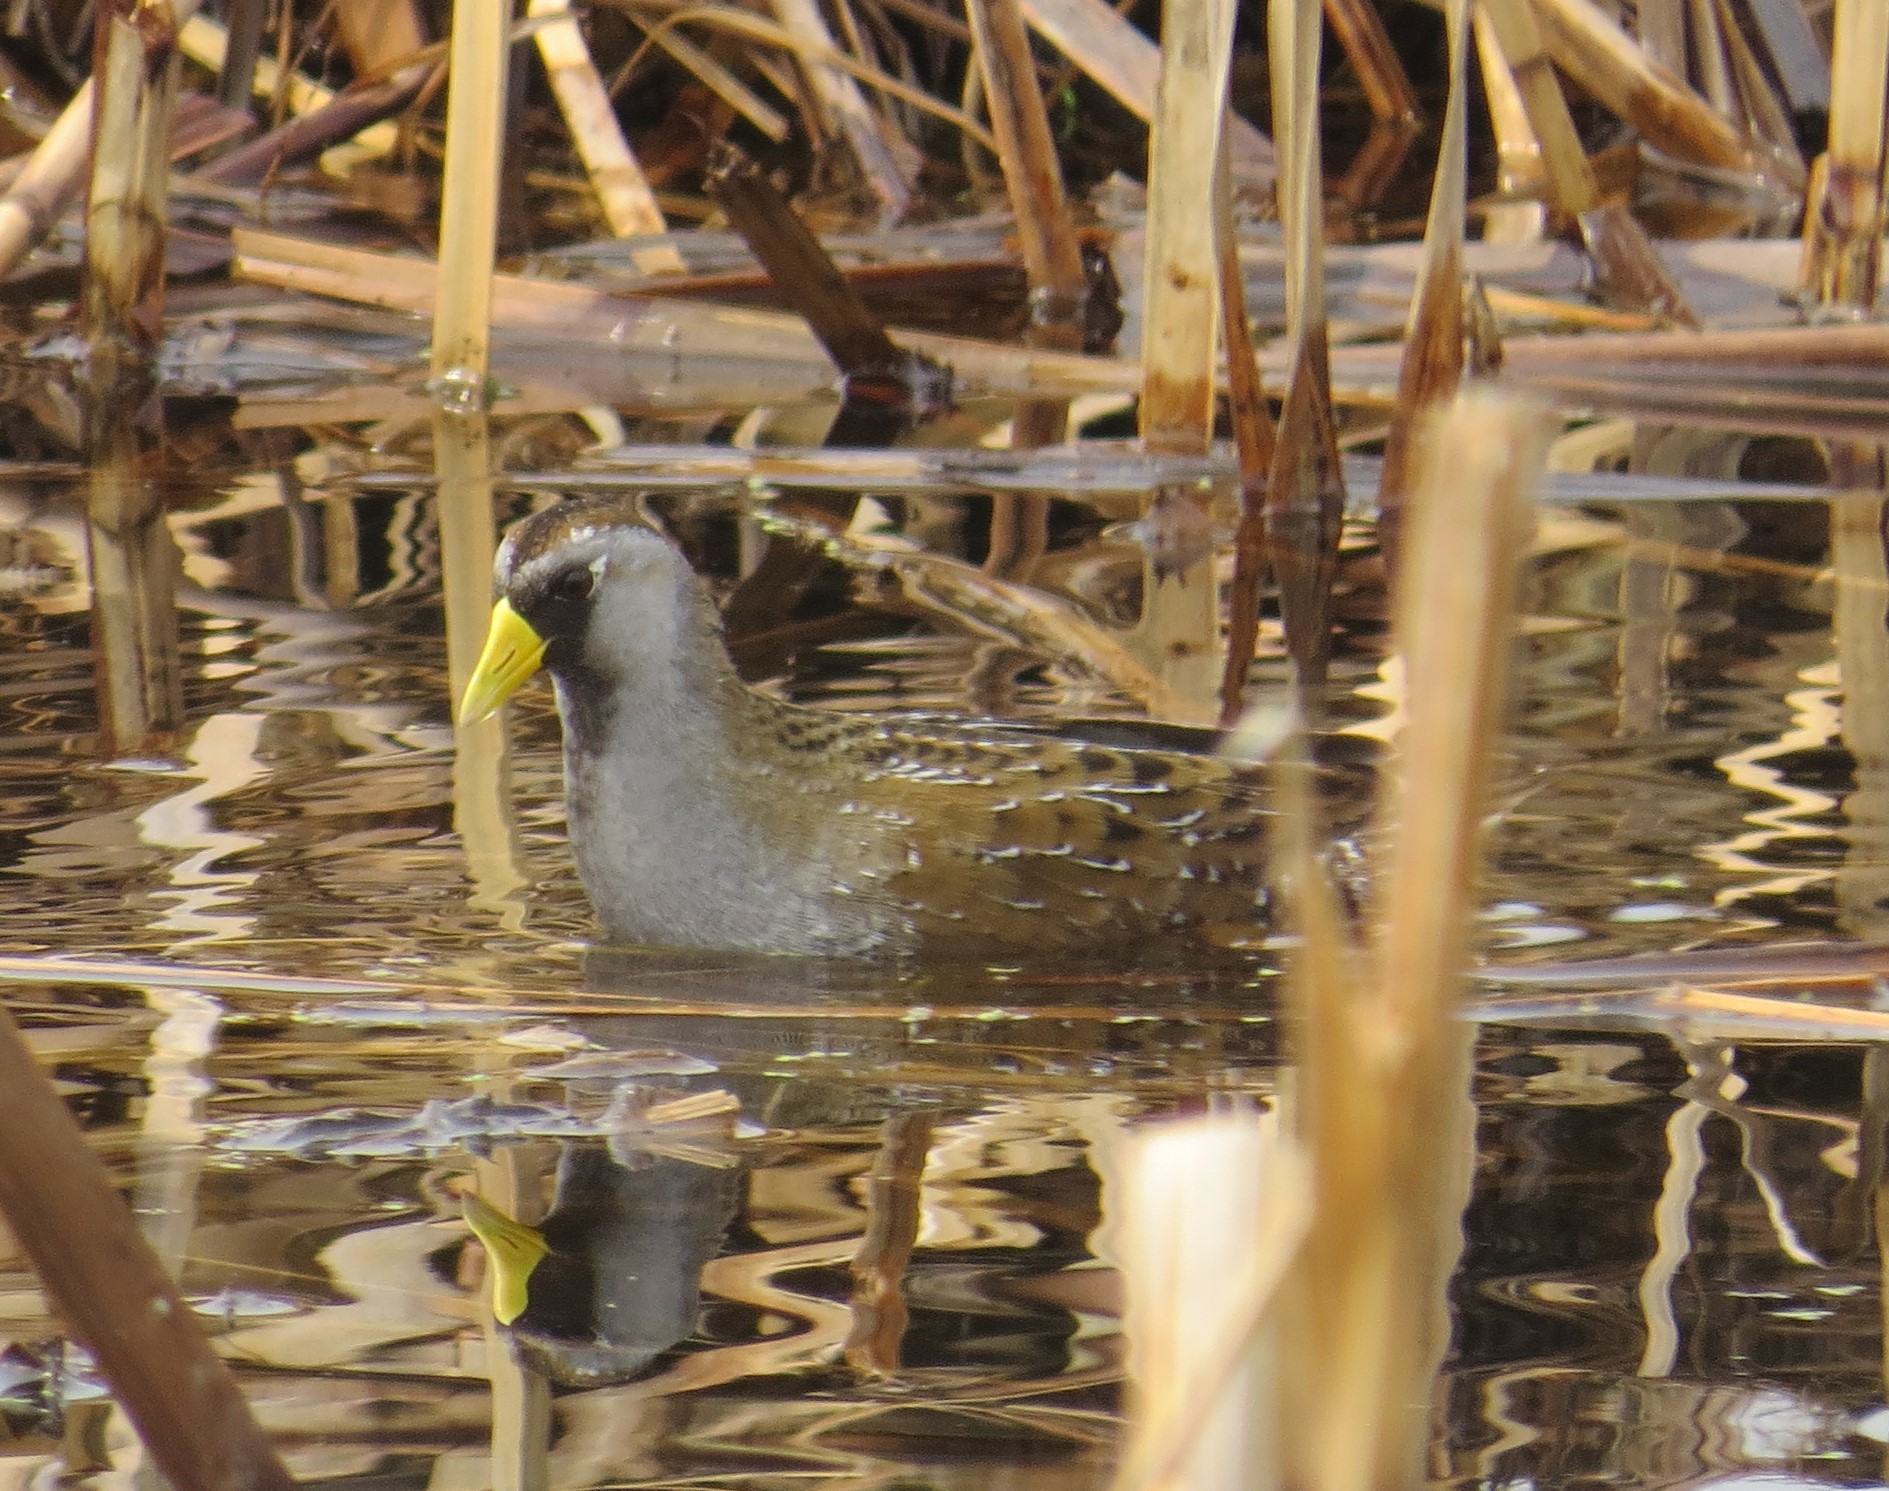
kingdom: Animalia
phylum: Chordata
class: Aves
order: Gruiformes
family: Rallidae
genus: Porzana
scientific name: Porzana carolina
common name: Sora
